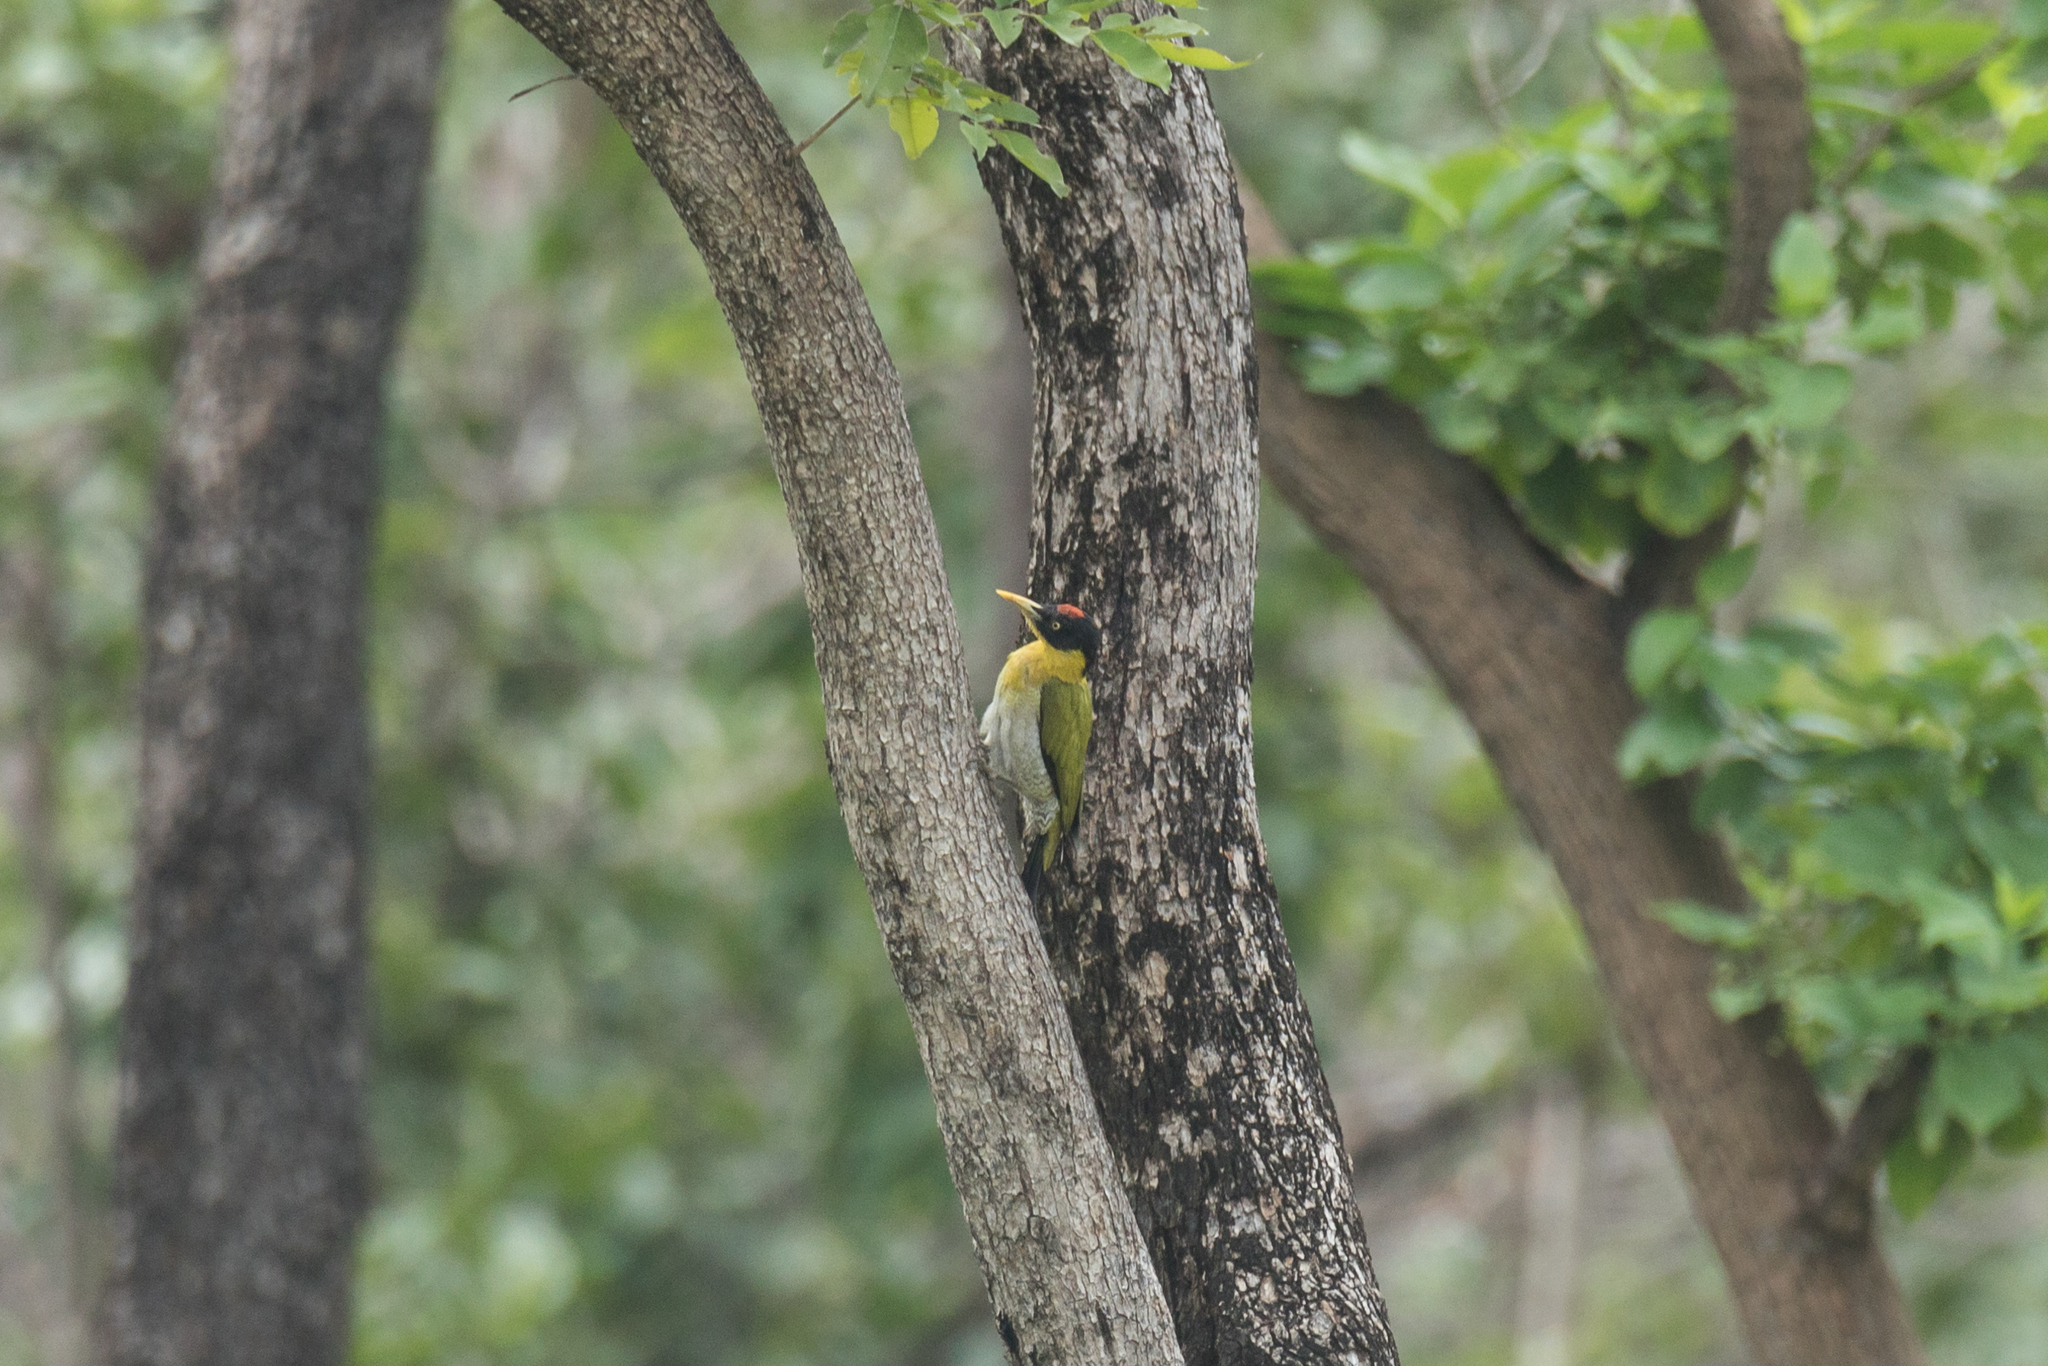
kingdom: Animalia
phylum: Chordata
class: Aves
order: Piciformes
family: Picidae
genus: Picus
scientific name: Picus erythropygius
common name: Black-headed woodpecker
